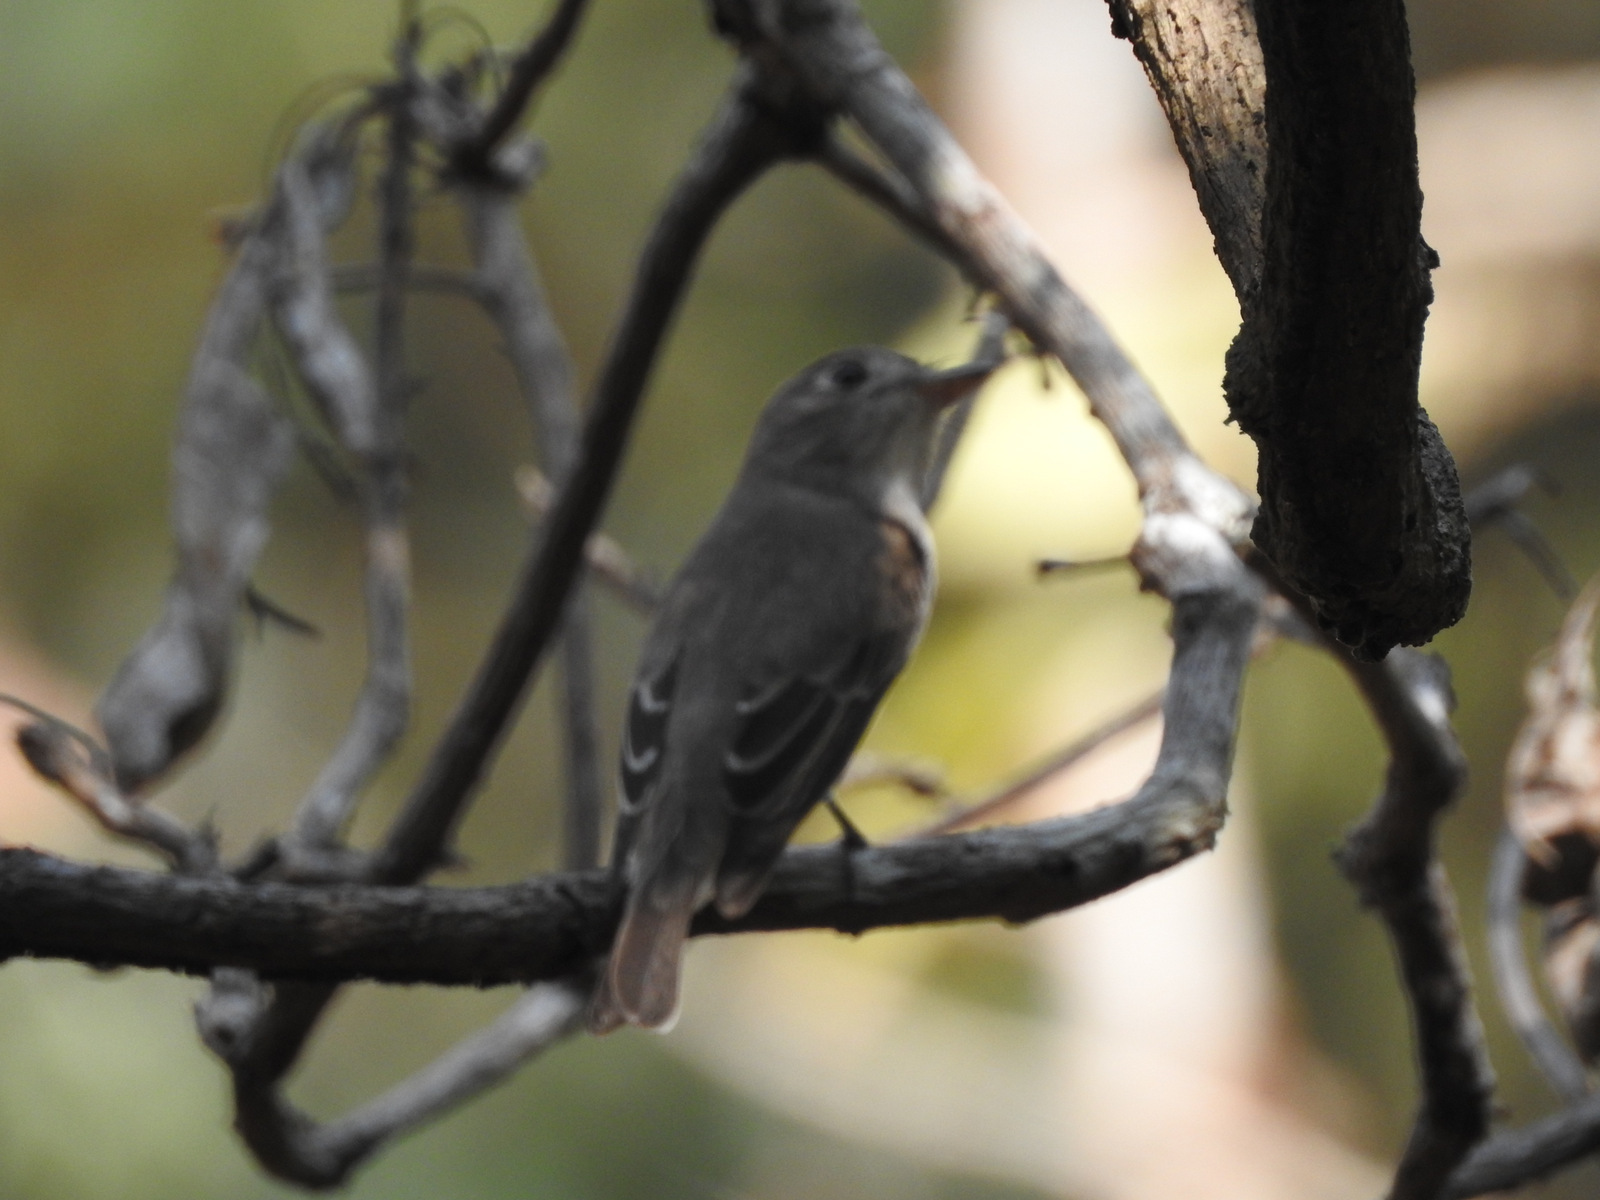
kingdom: Animalia
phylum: Chordata
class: Aves
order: Passeriformes
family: Muscicapidae
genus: Muscicapa
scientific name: Muscicapa latirostris
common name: Asian brown flycatcher
